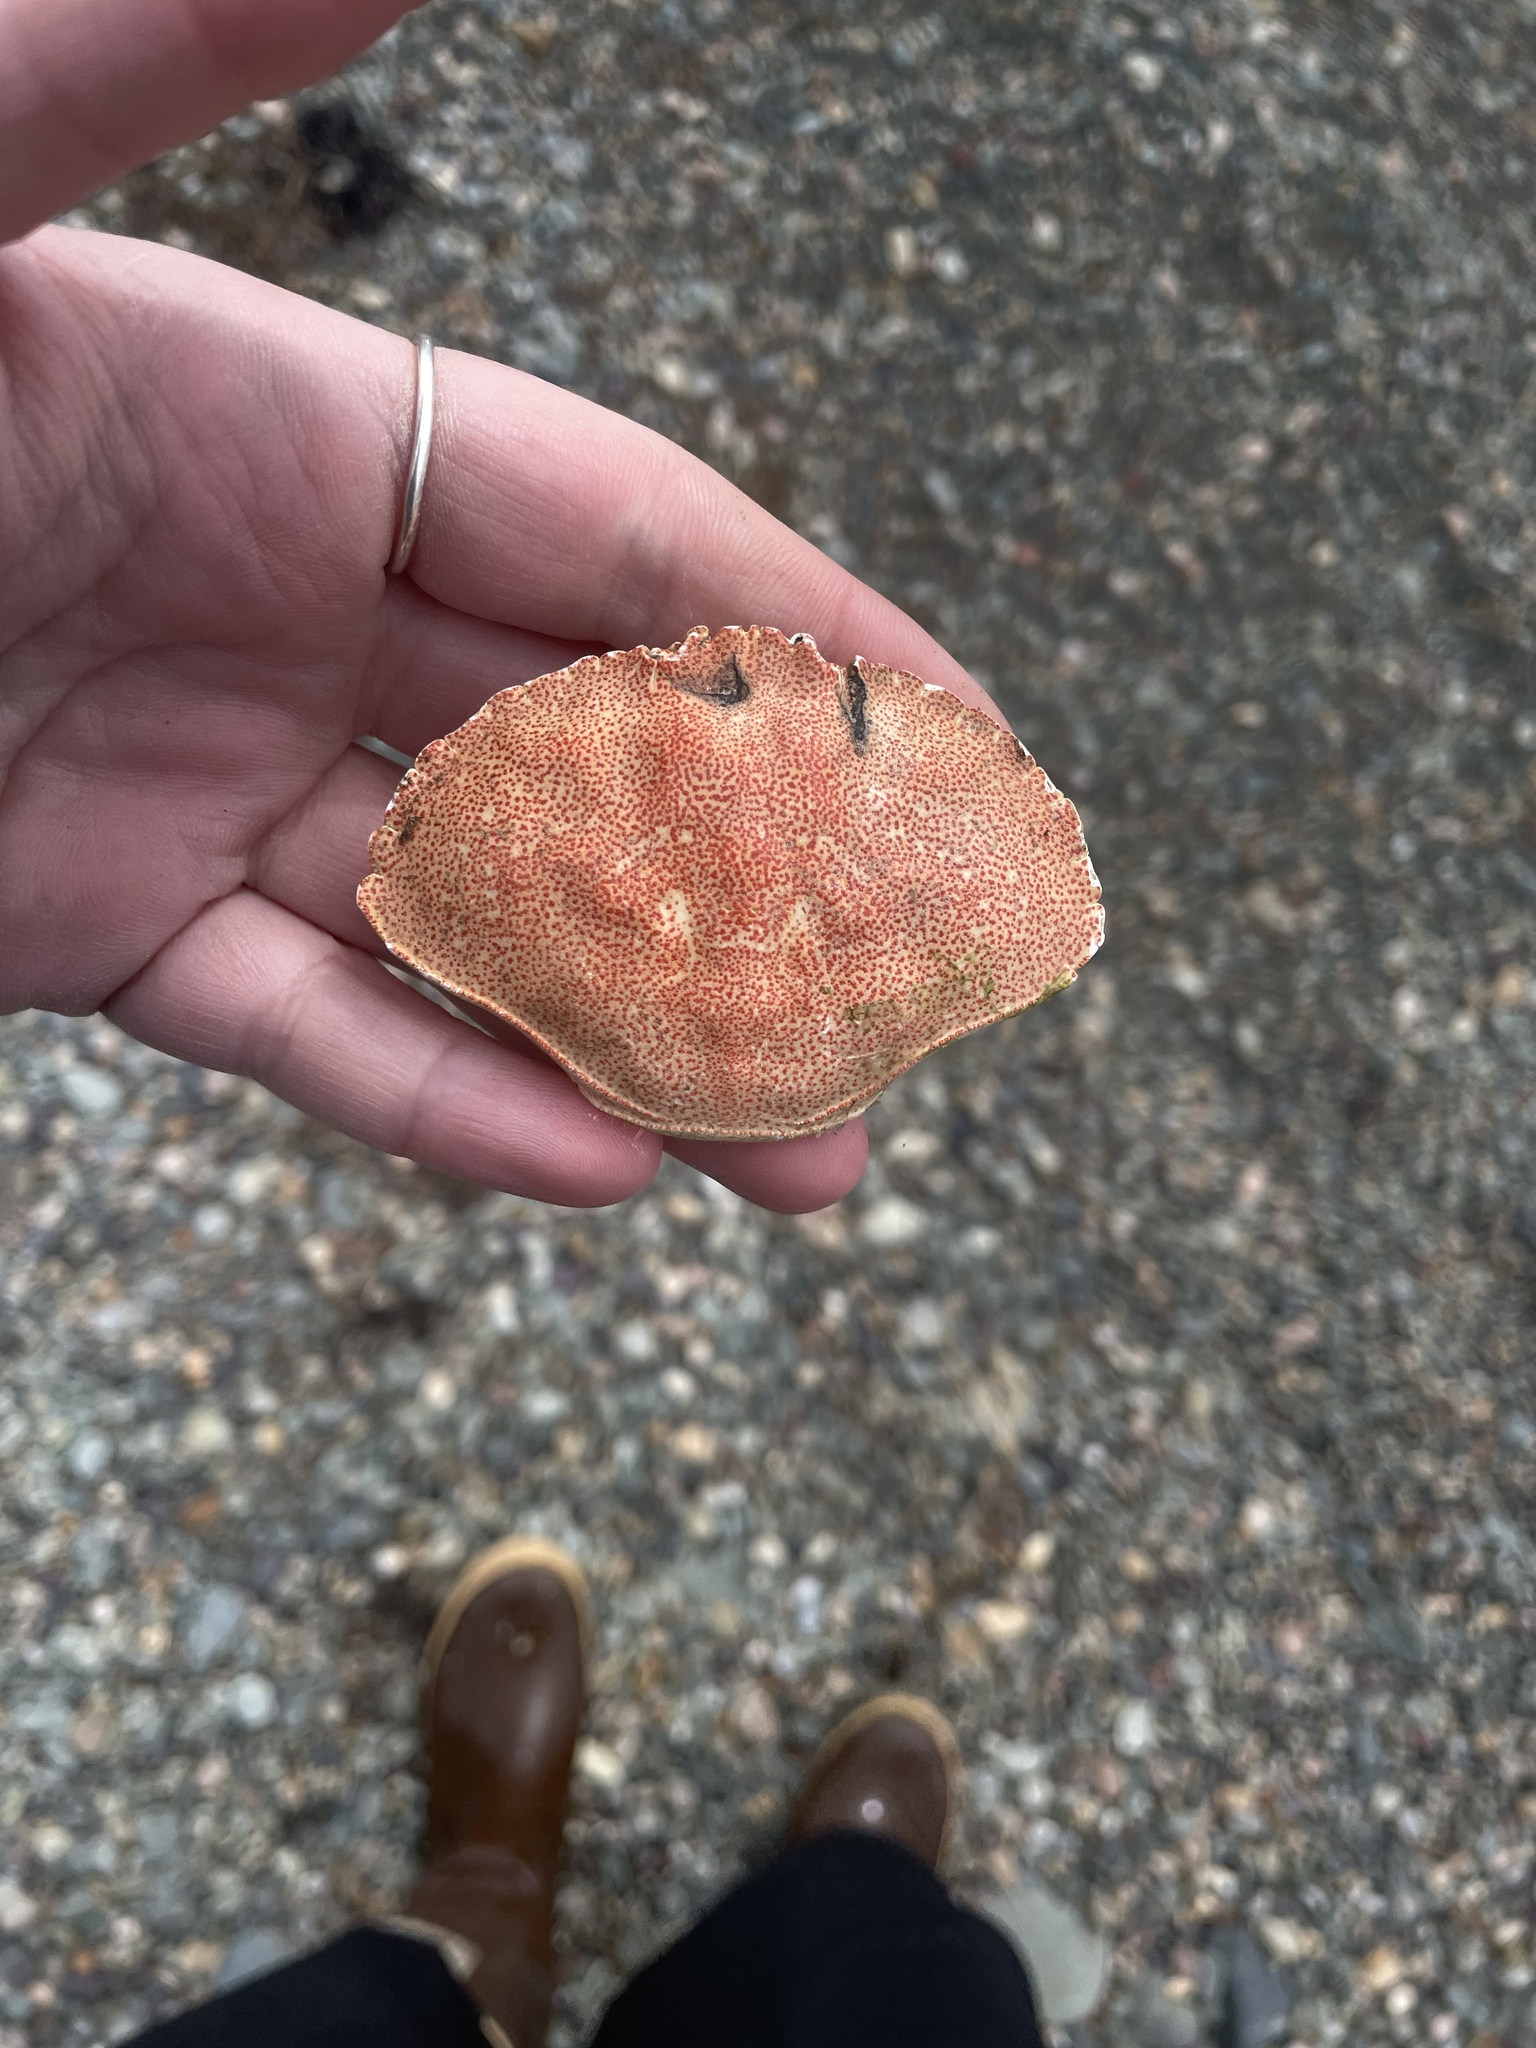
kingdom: Animalia
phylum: Arthropoda
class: Malacostraca
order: Decapoda
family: Cancridae
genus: Cancer
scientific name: Cancer irroratus
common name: Atlantic rock crab
